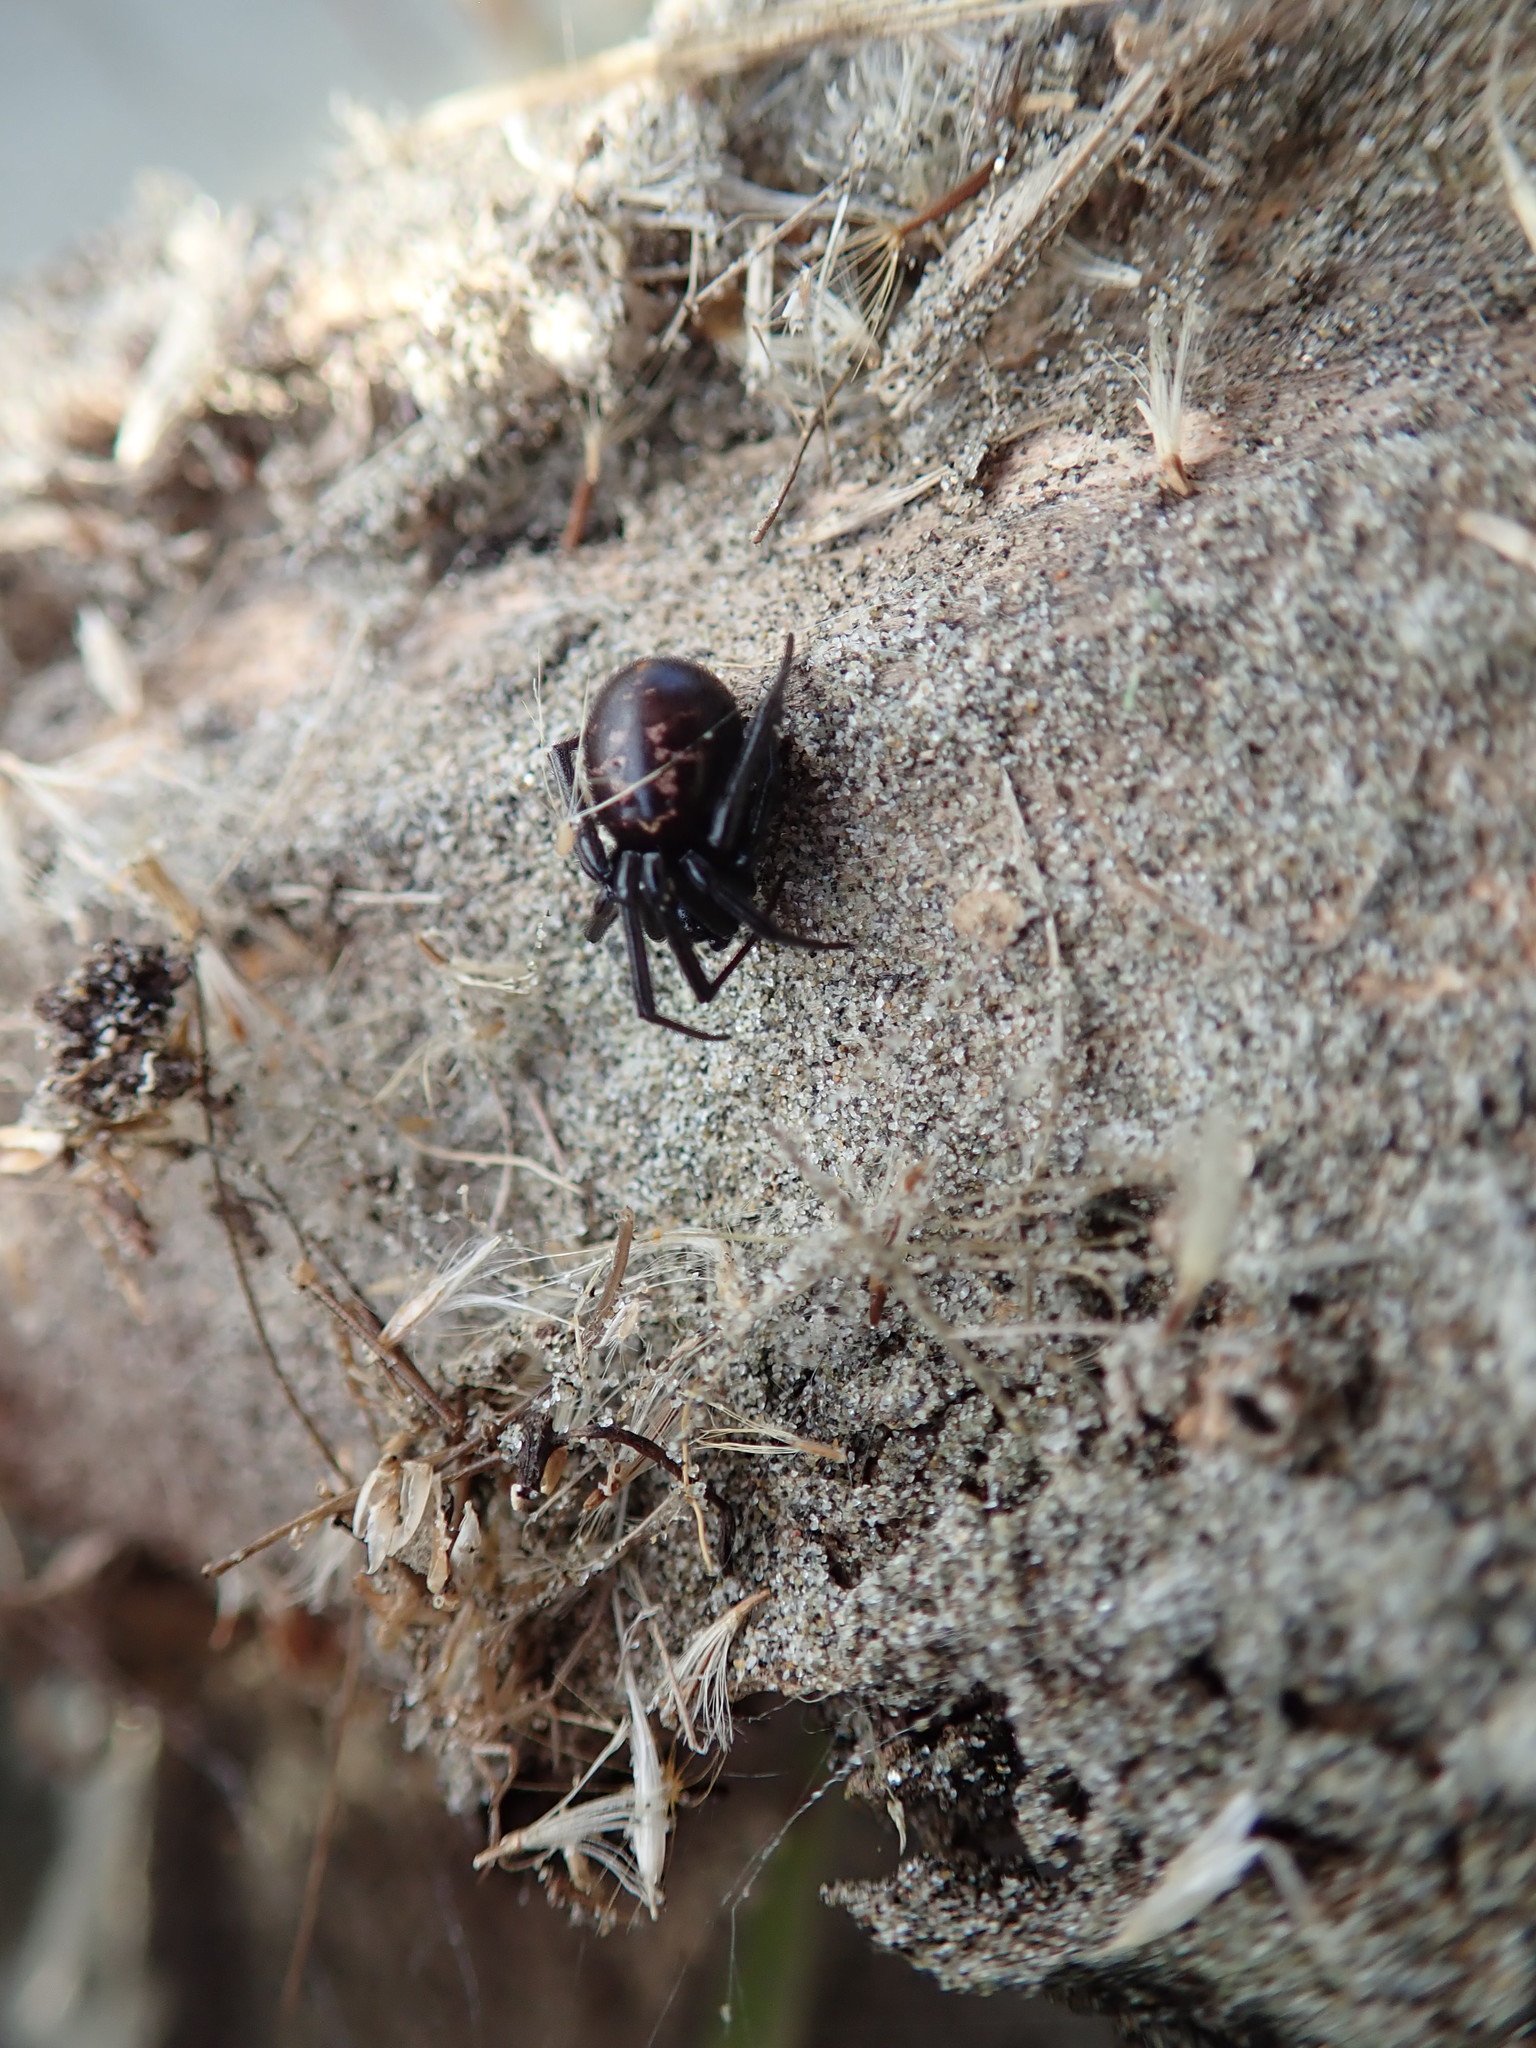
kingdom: Animalia
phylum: Arthropoda
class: Arachnida
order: Araneae
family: Theridiidae
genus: Steatoda
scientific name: Steatoda capensis
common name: Cobweb weaver
